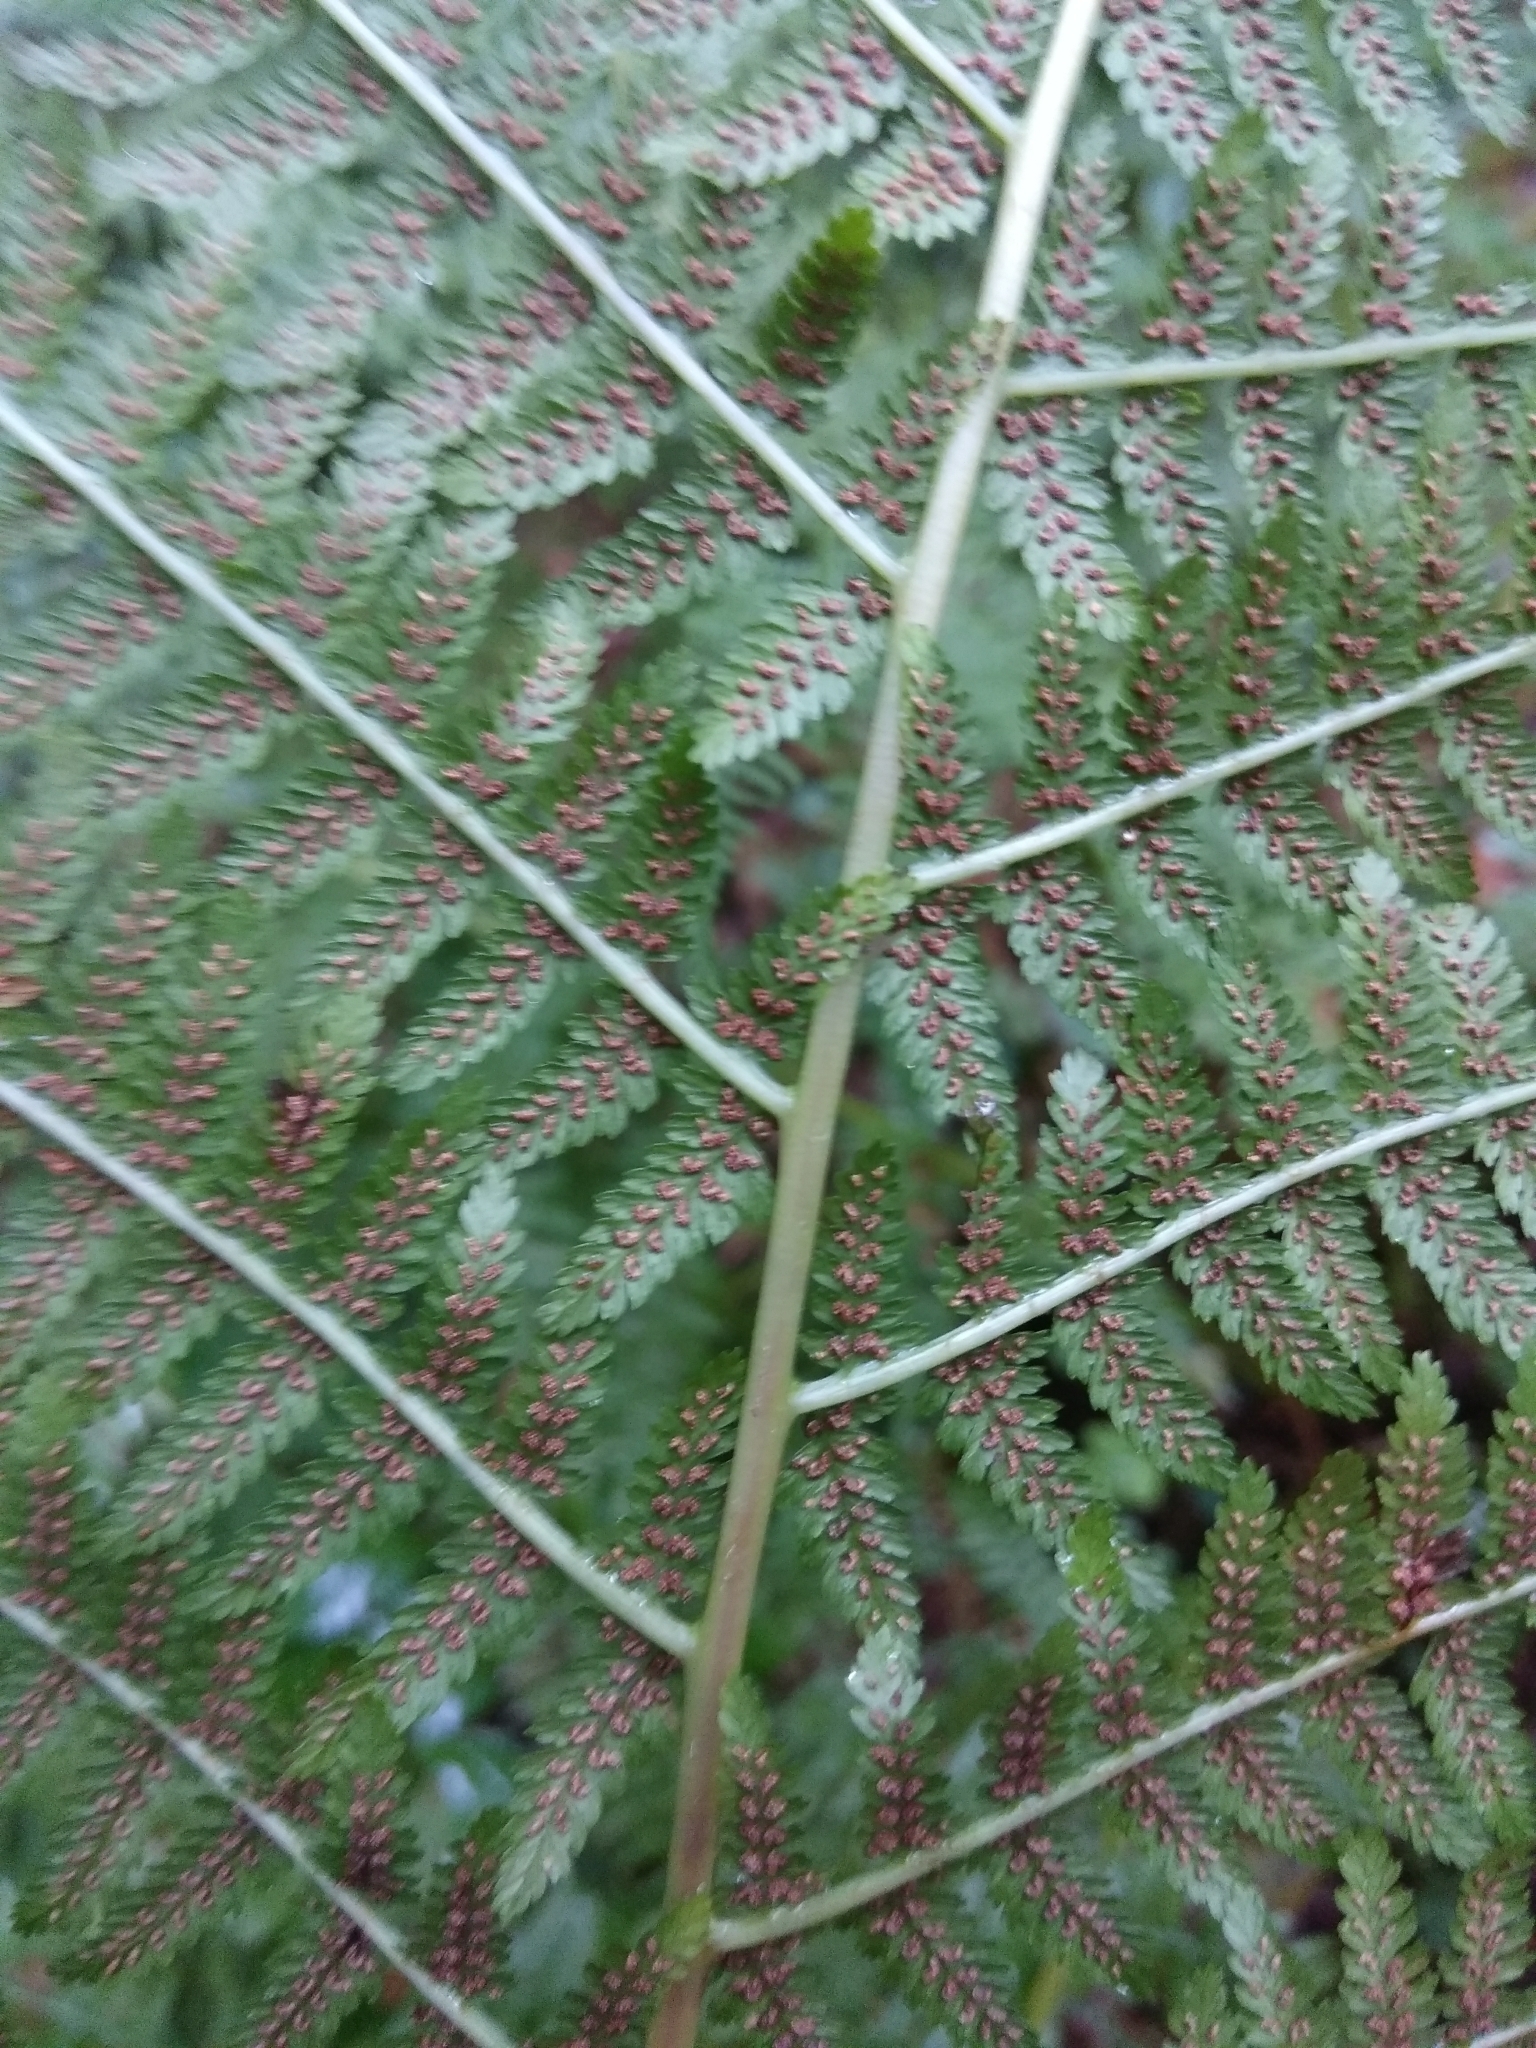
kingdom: Plantae
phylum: Tracheophyta
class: Polypodiopsida
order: Polypodiales
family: Athyriaceae
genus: Athyrium
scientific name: Athyrium filix-femina
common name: Lady fern
